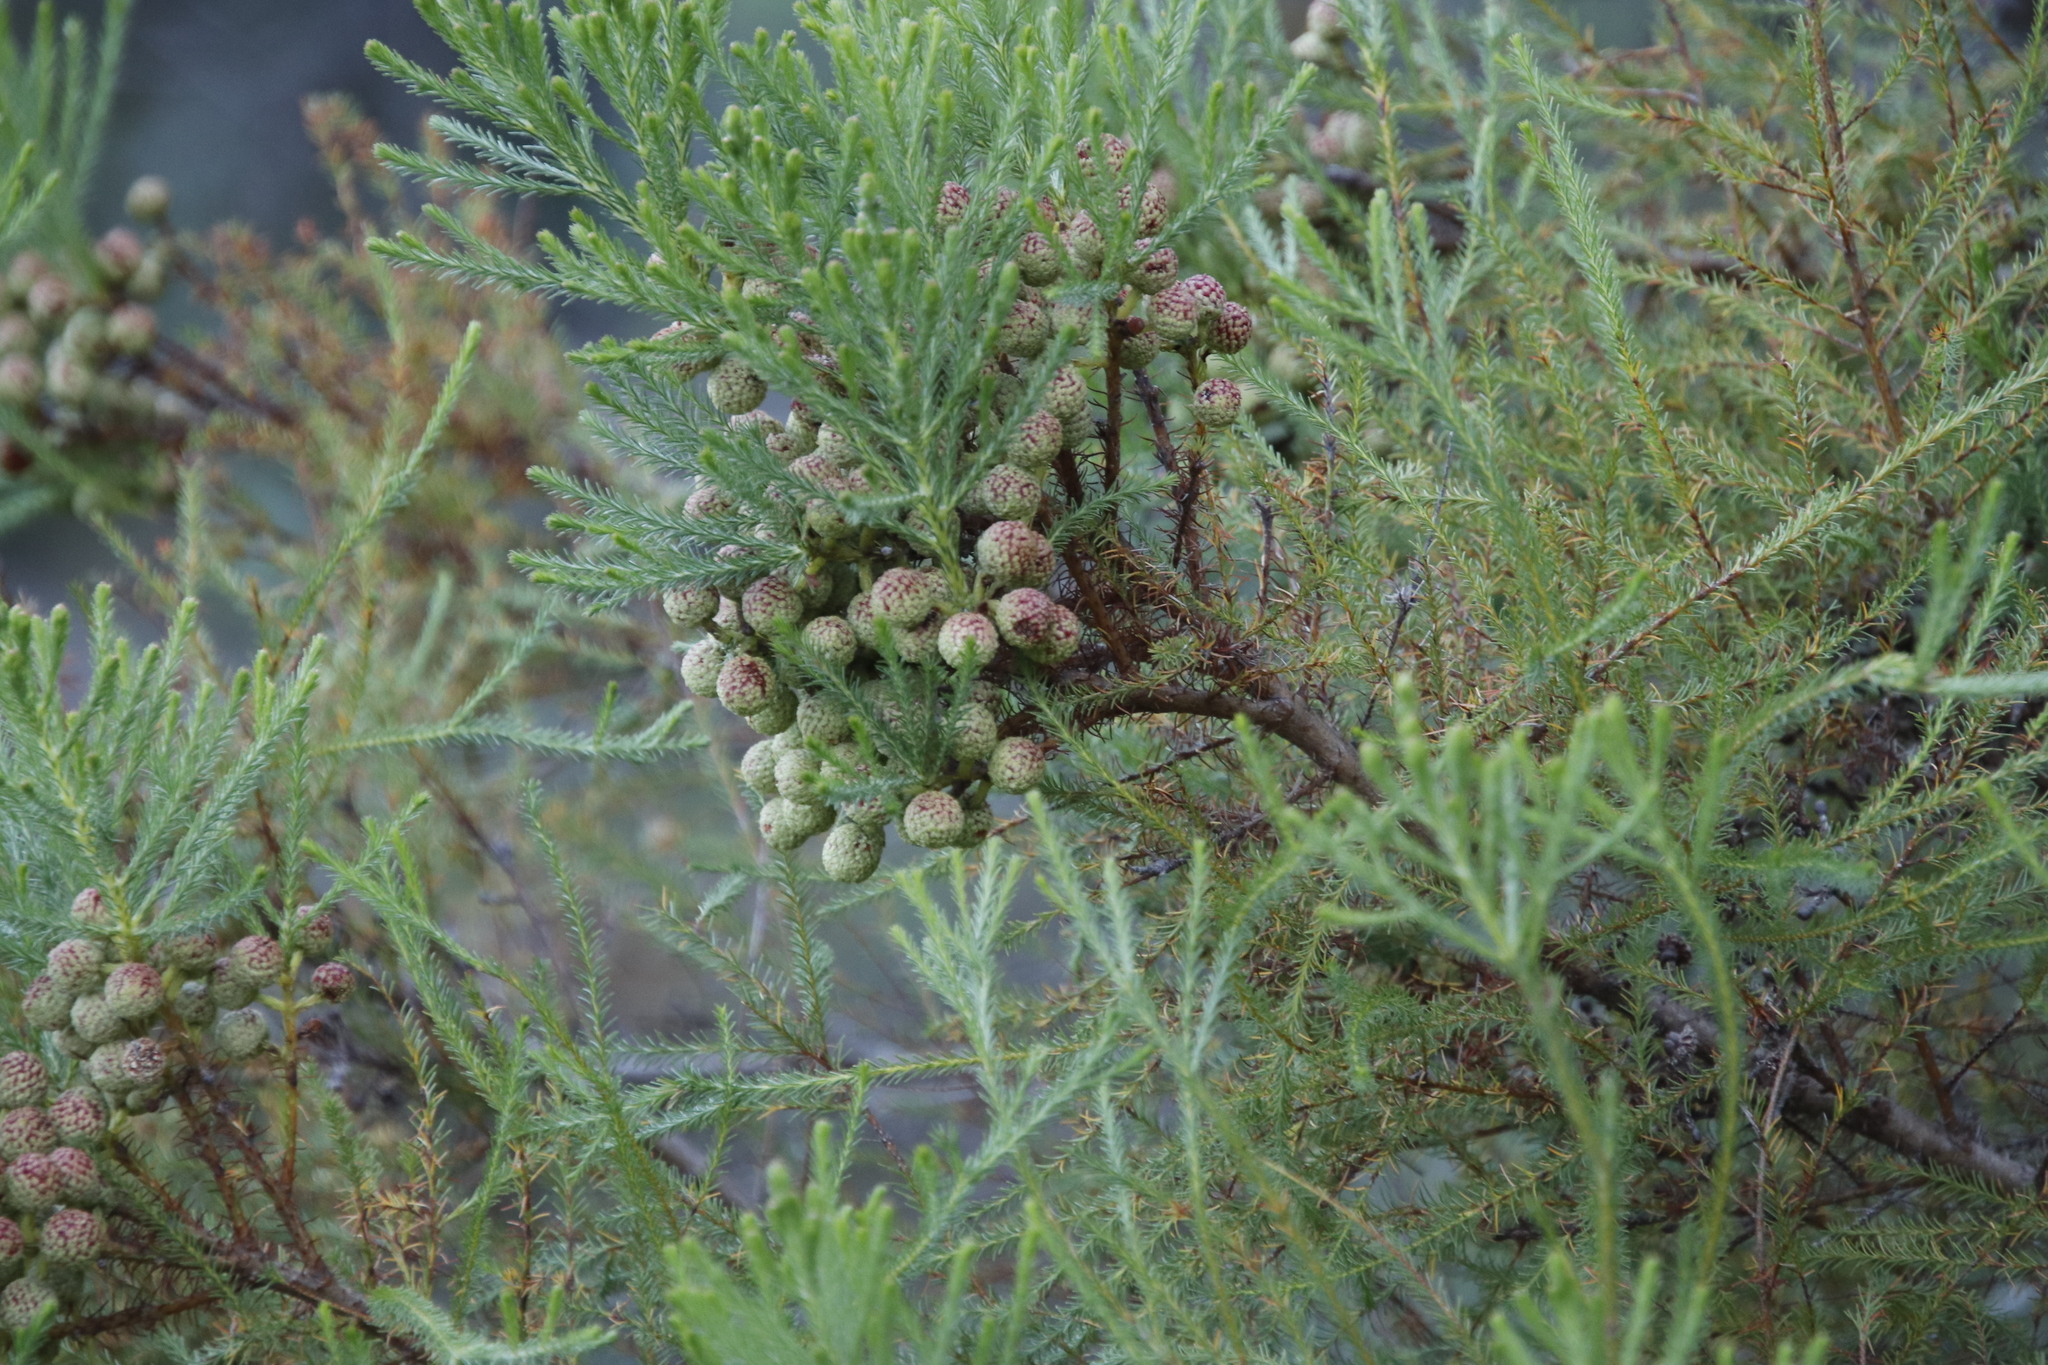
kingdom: Plantae
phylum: Tracheophyta
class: Magnoliopsida
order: Bruniales
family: Bruniaceae
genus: Berzelia
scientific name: Berzelia lanuginosa
